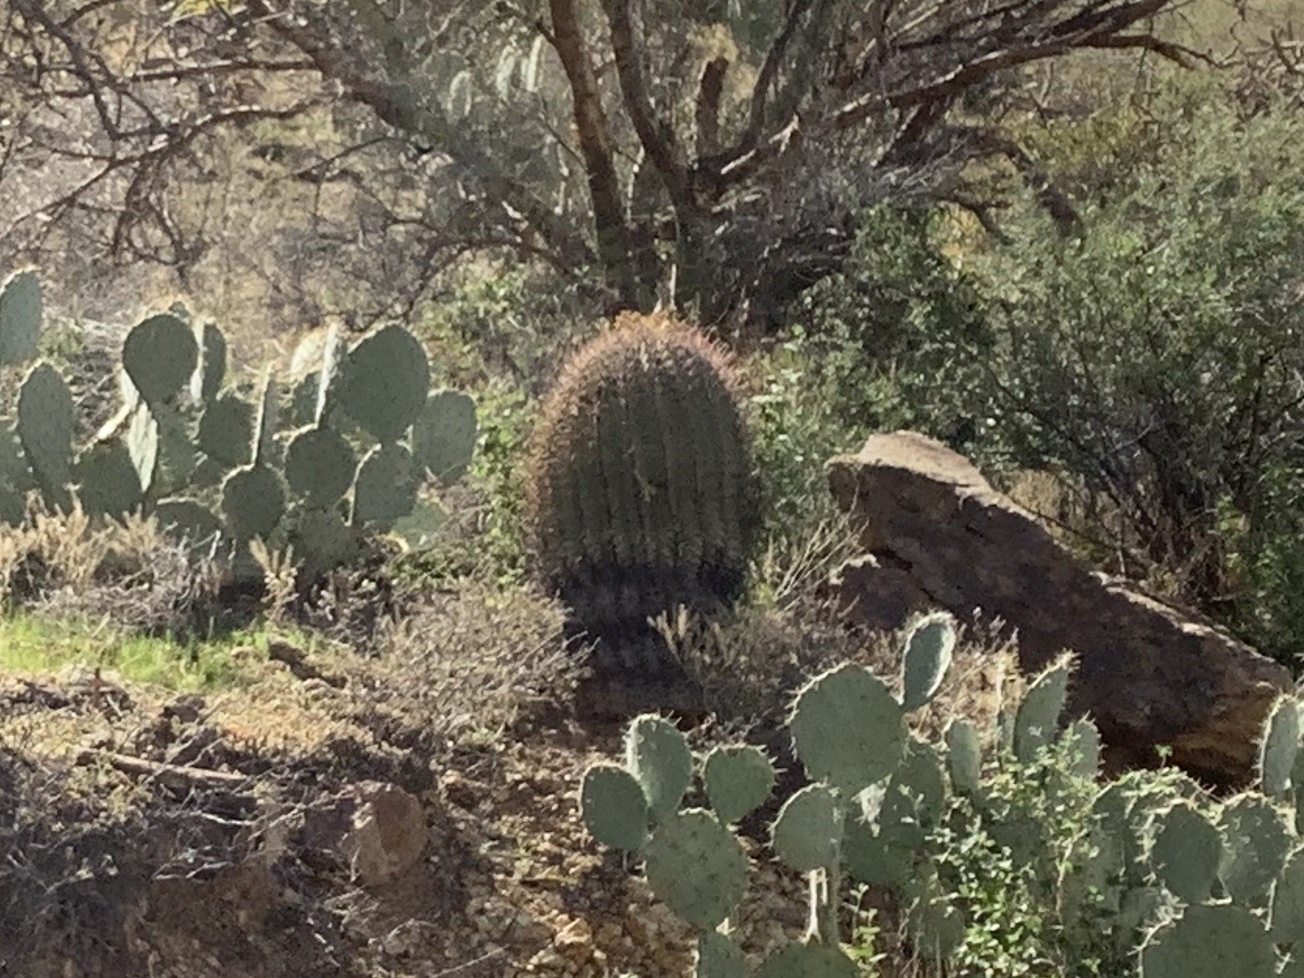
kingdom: Plantae
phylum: Tracheophyta
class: Magnoliopsida
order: Caryophyllales
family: Cactaceae
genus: Ferocactus
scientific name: Ferocactus wislizeni
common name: Candy barrel cactus
